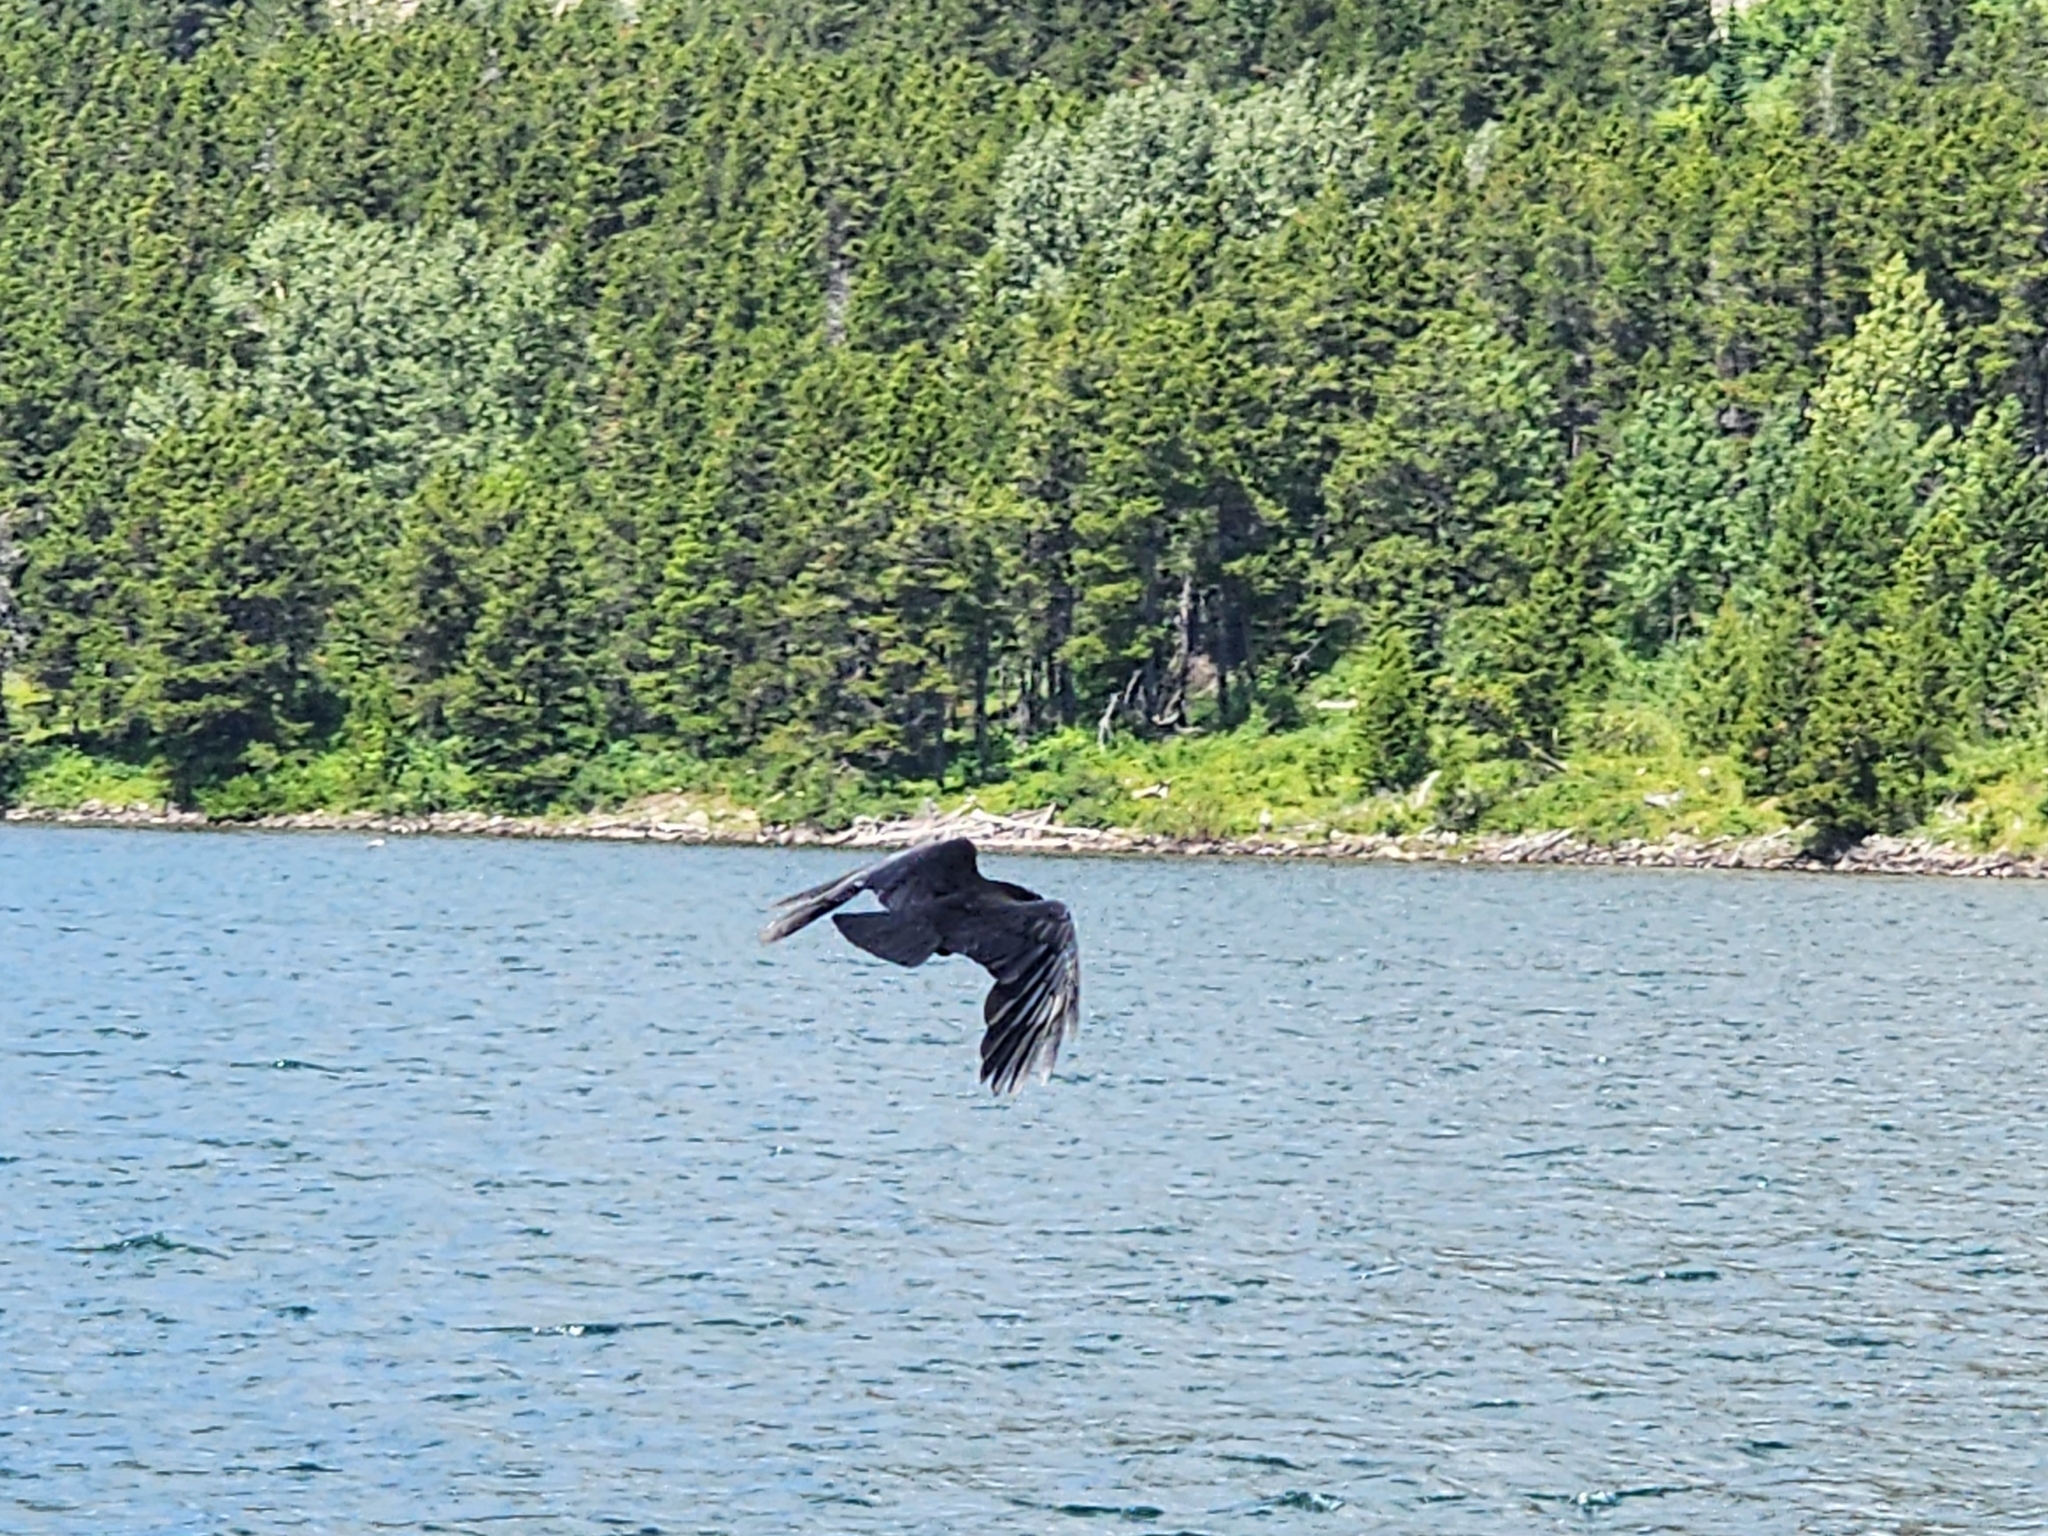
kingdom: Animalia
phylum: Chordata
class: Aves
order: Passeriformes
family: Corvidae
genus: Corvus
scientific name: Corvus brachyrhynchos
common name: American crow
